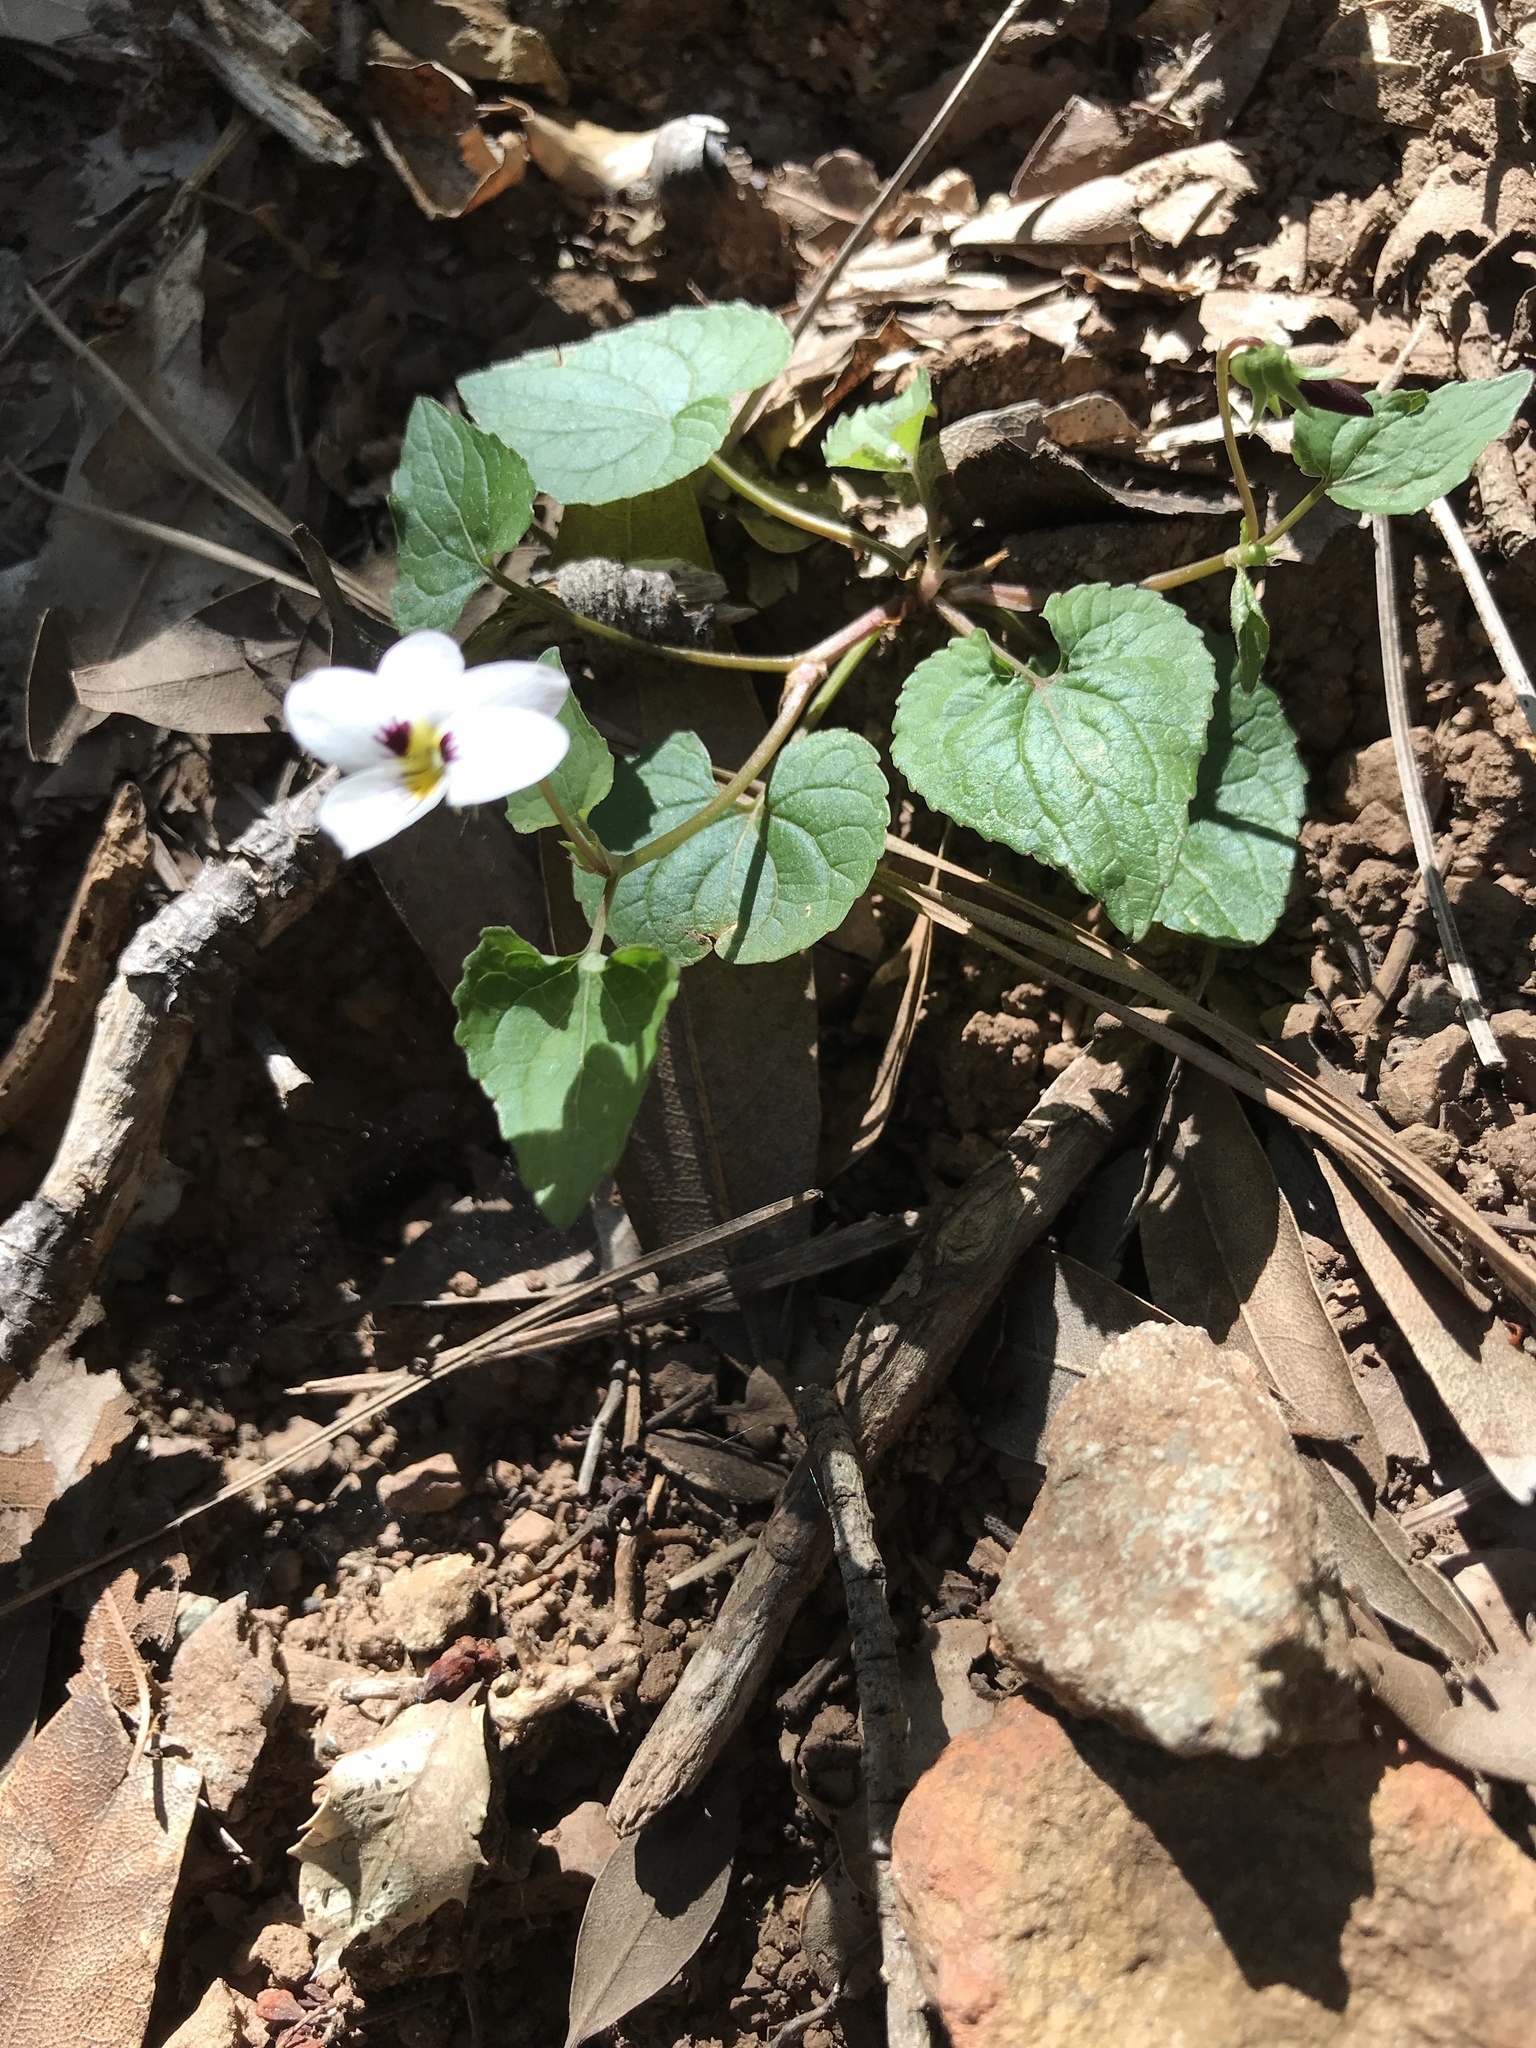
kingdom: Plantae
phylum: Tracheophyta
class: Magnoliopsida
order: Malpighiales
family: Violaceae
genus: Viola
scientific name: Viola ocellata
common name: Western heart's ease
